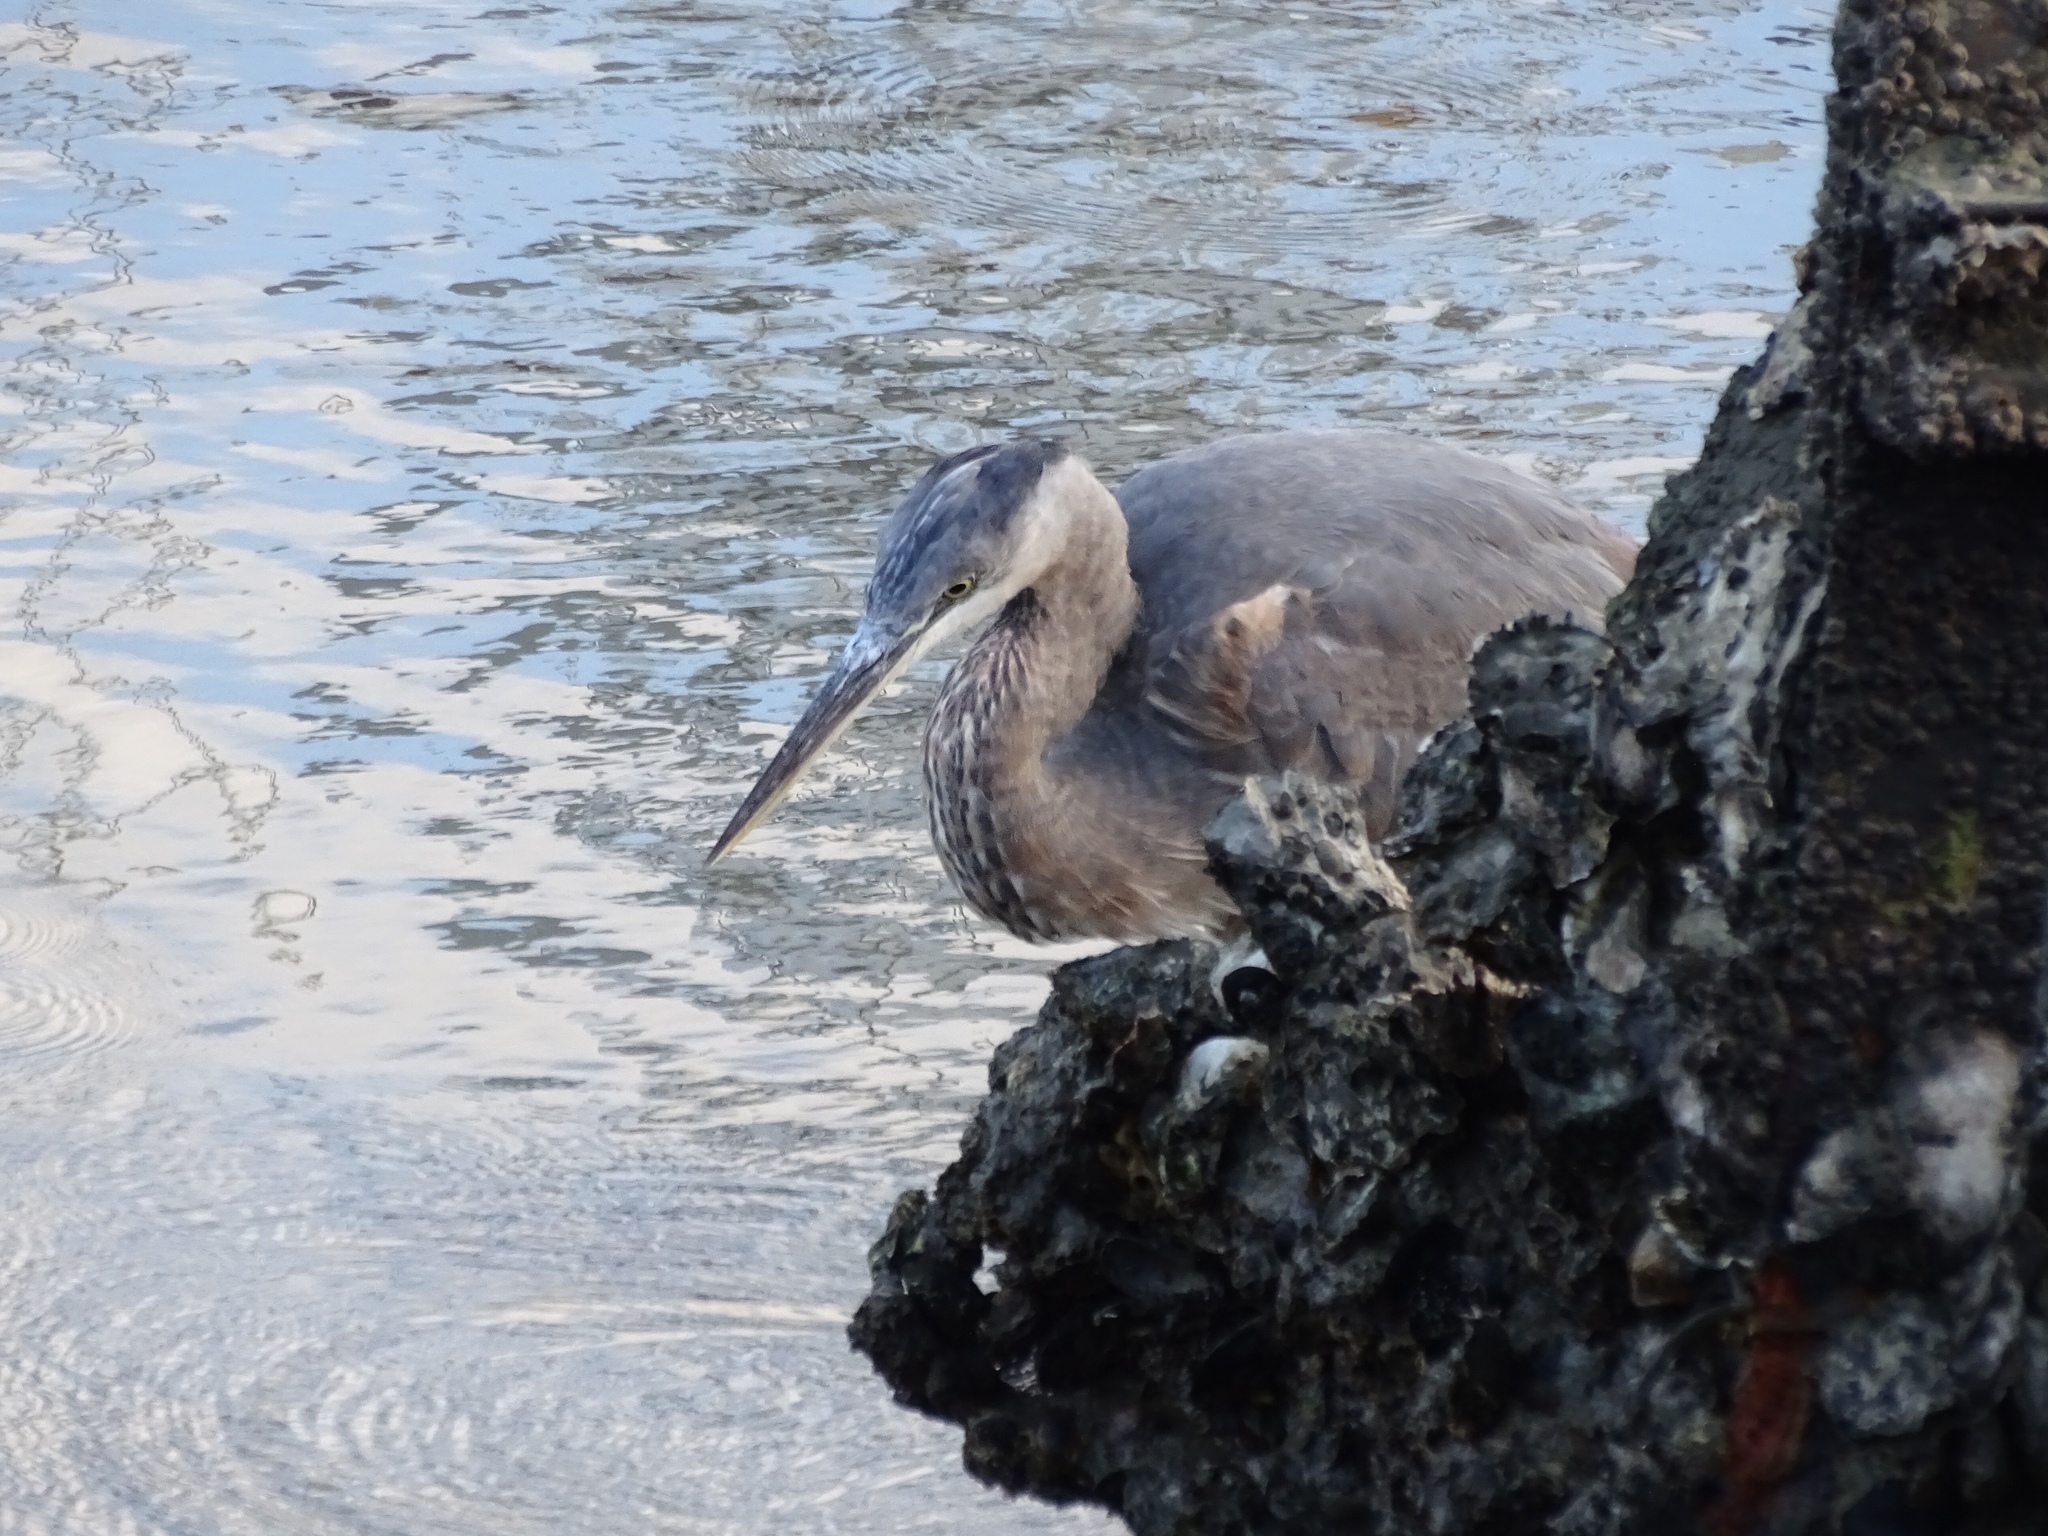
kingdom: Animalia
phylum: Chordata
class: Aves
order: Pelecaniformes
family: Ardeidae
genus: Ardea
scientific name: Ardea herodias
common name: Great blue heron
